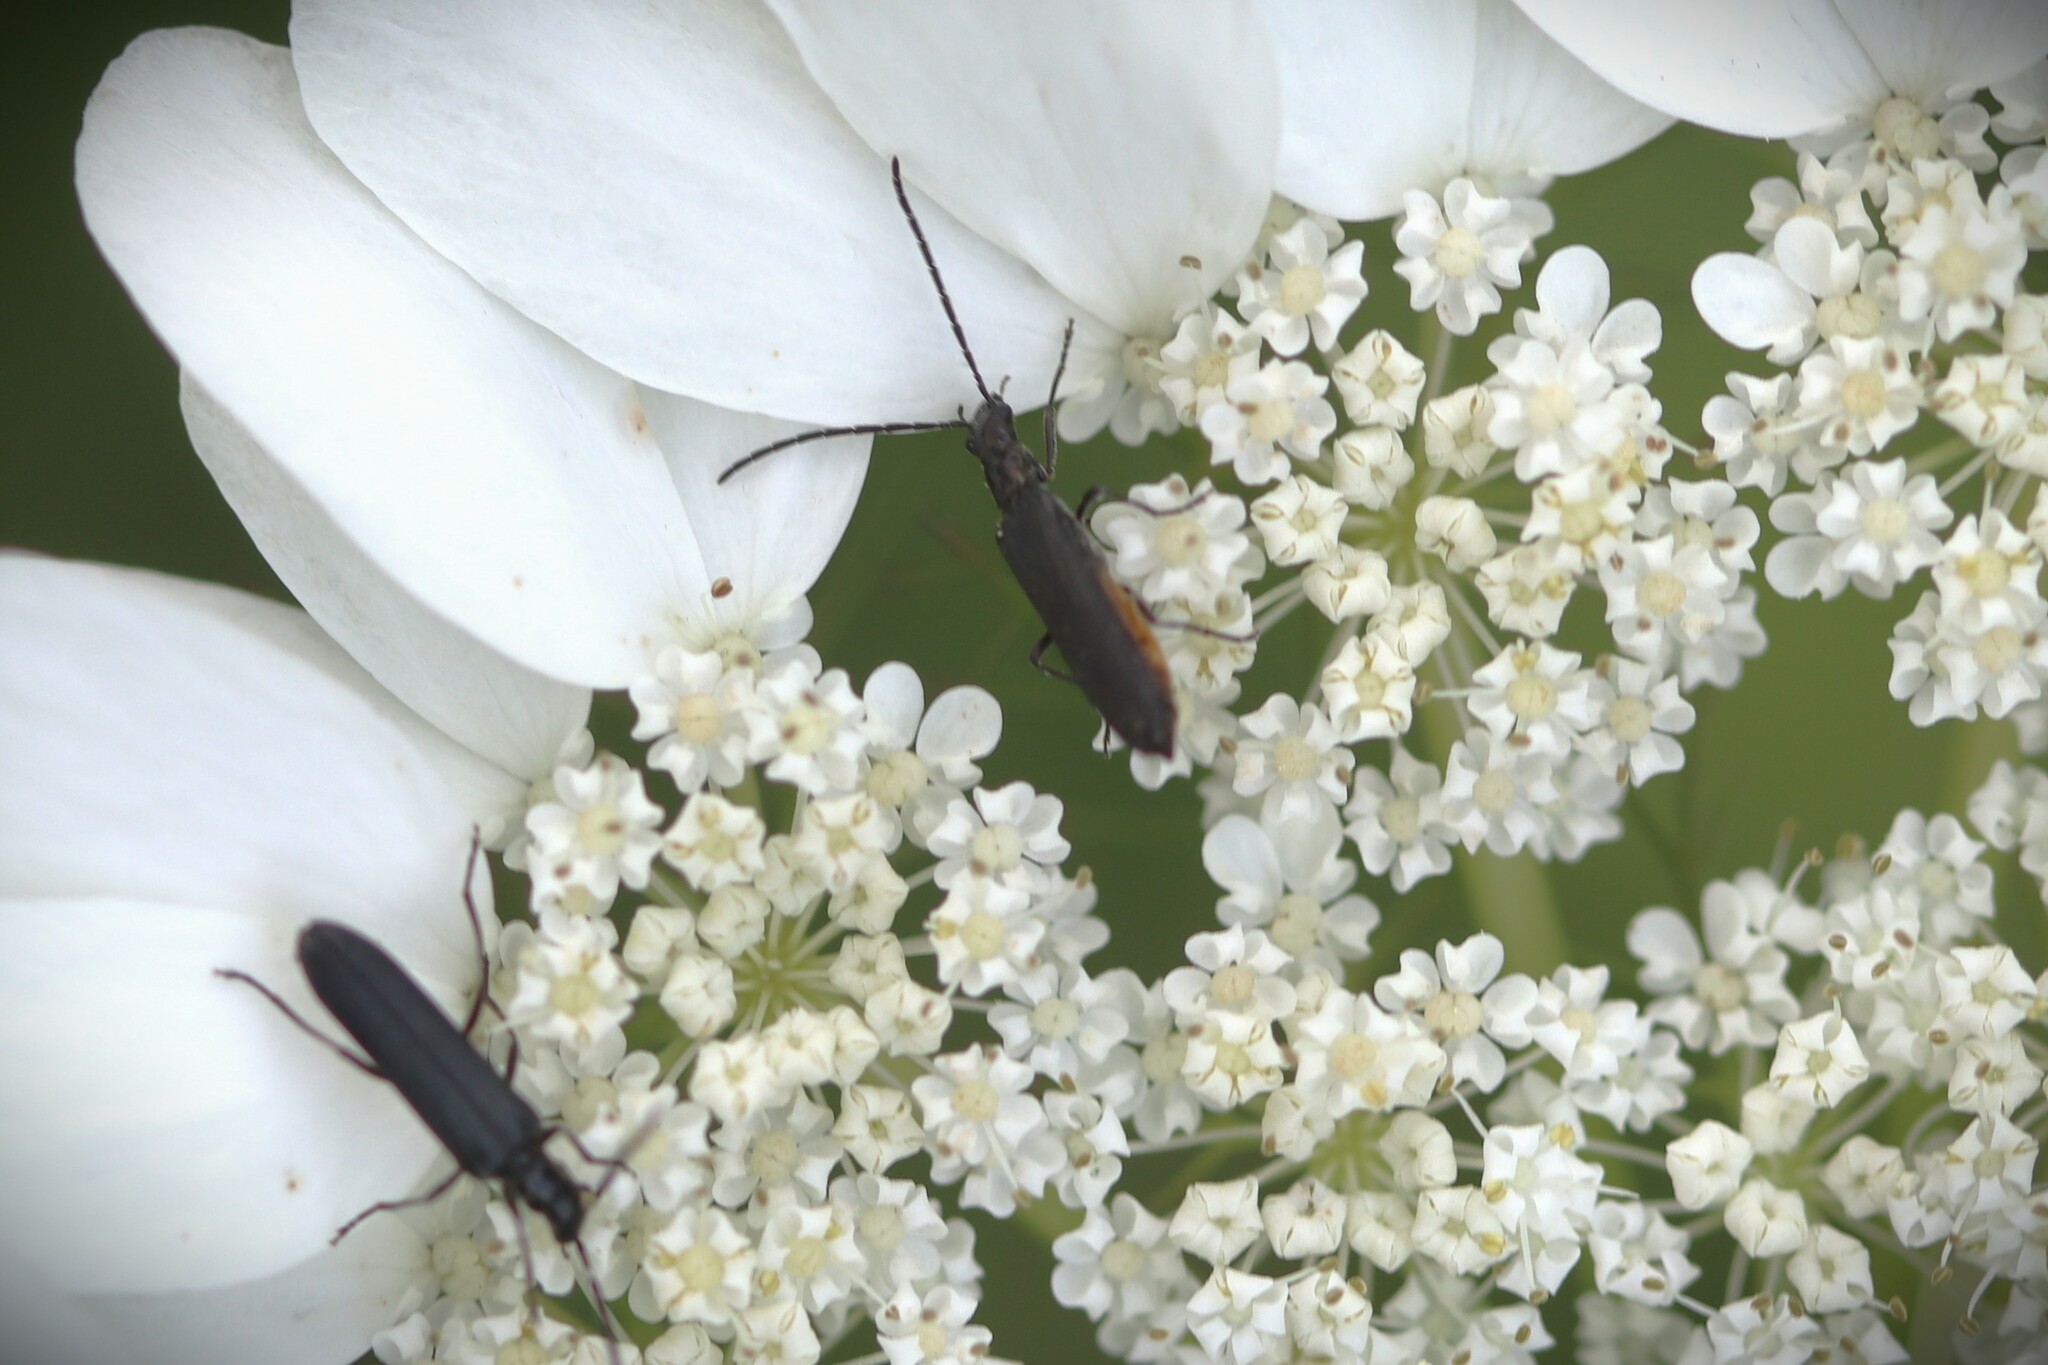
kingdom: Animalia
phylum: Arthropoda
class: Insecta
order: Coleoptera
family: Oedemeridae
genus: Opsimea
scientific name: Opsimea ventralis
